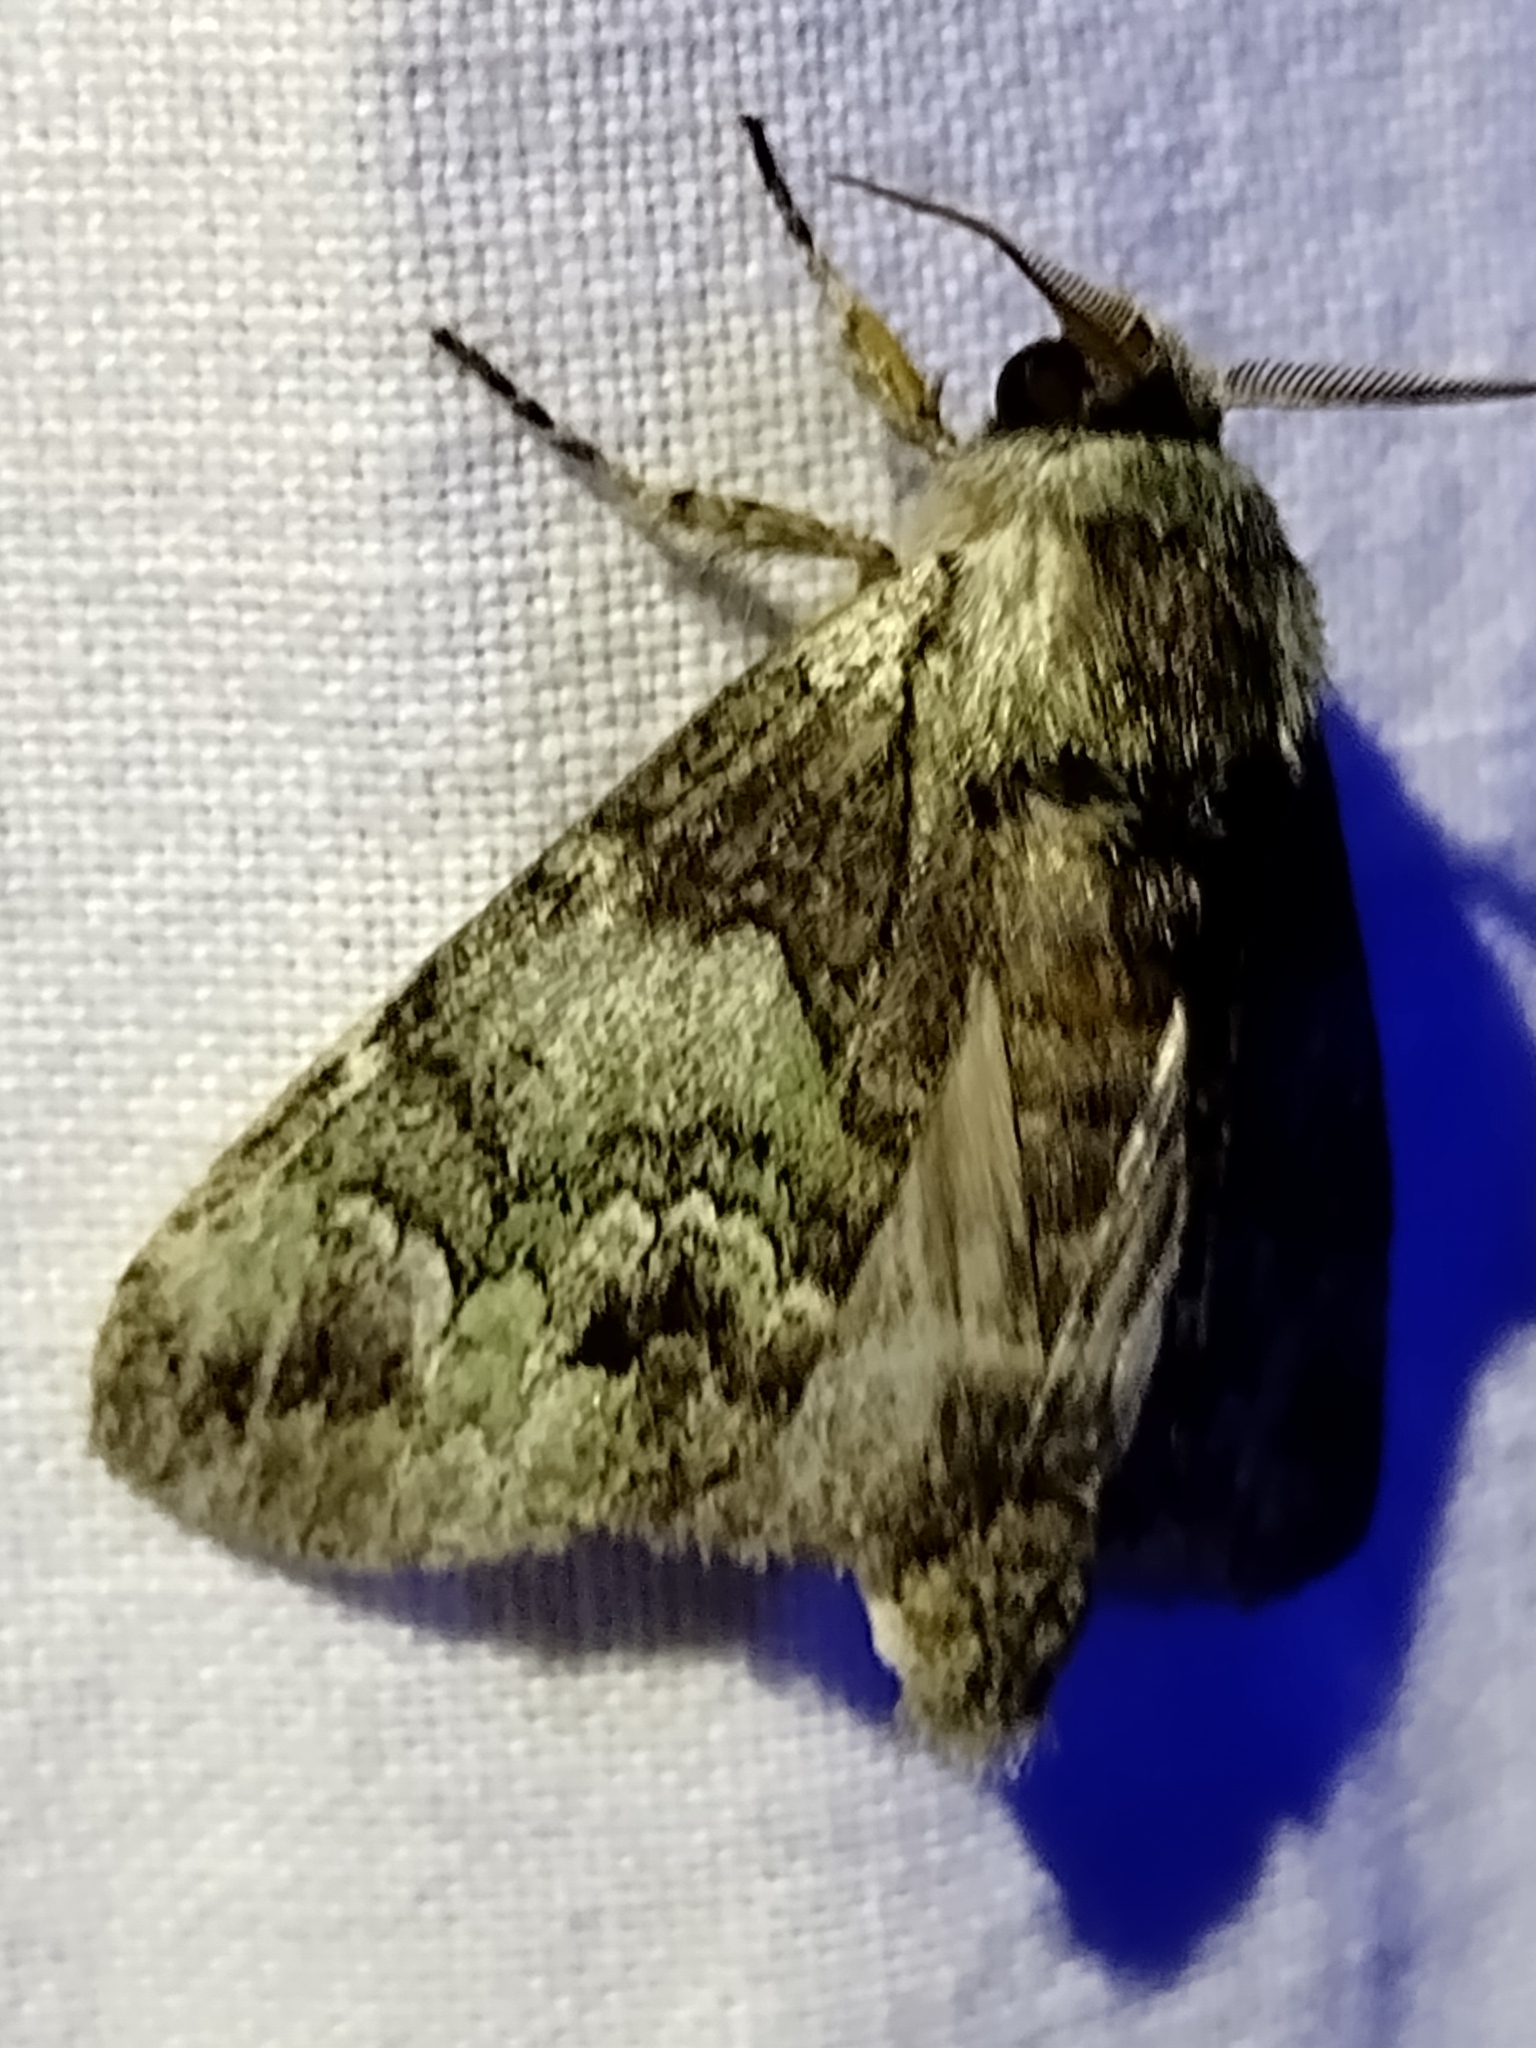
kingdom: Animalia
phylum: Arthropoda
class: Insecta
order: Lepidoptera
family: Notodontidae
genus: Macrurocampa
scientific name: Macrurocampa marthesia
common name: Mottled prominent
